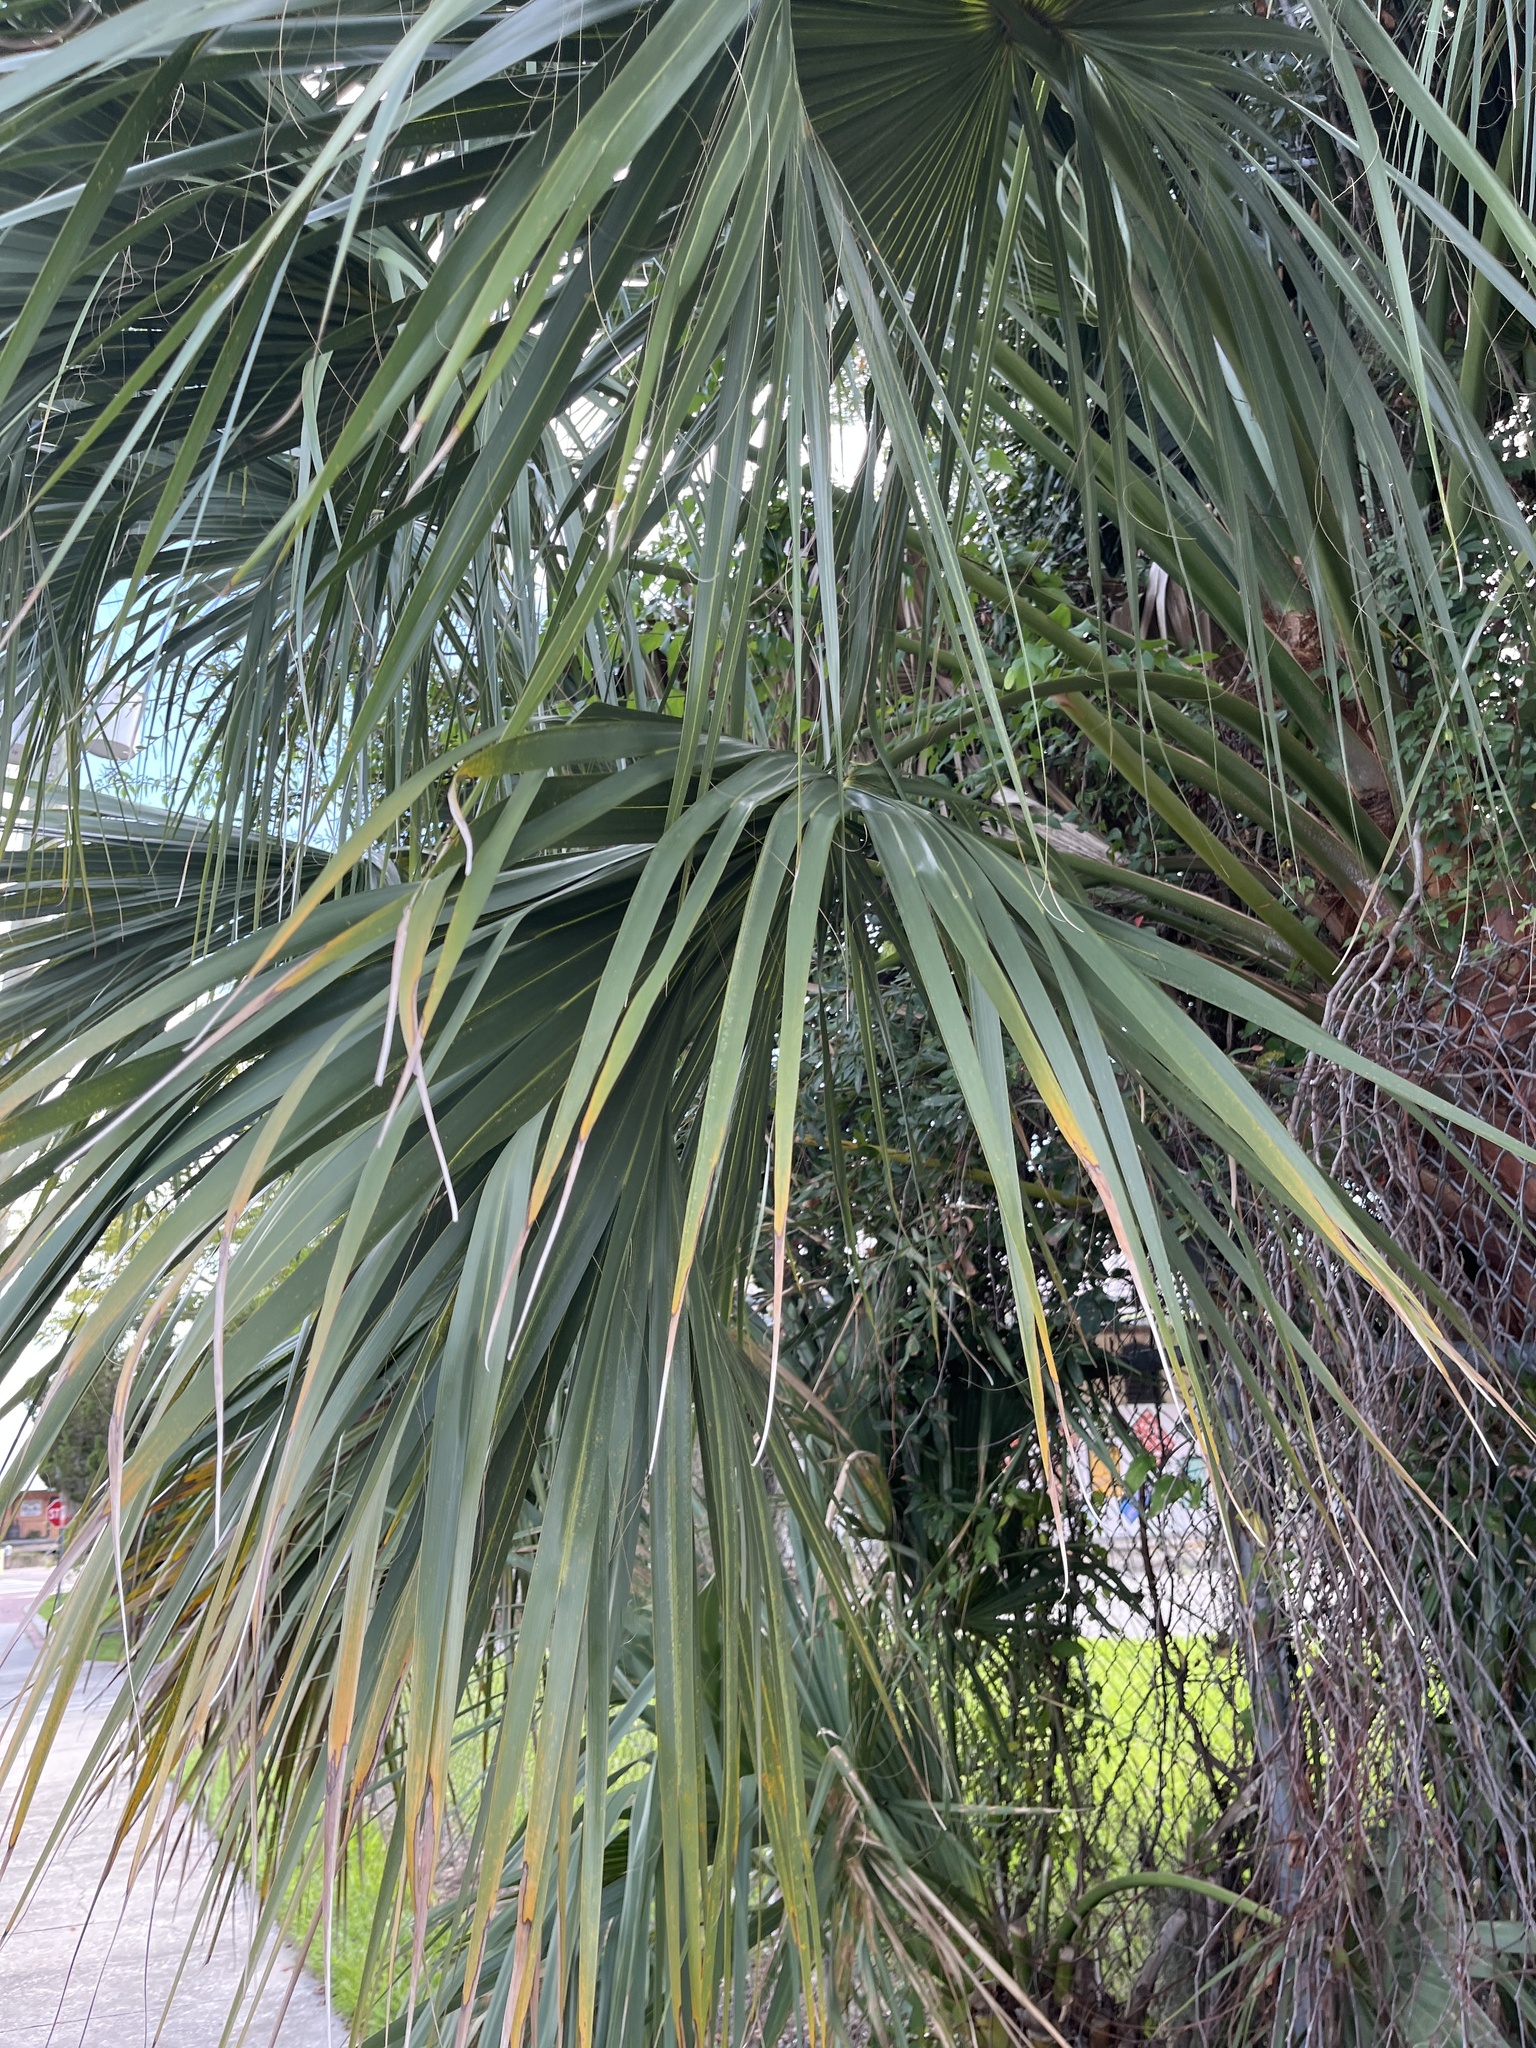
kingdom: Plantae
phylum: Tracheophyta
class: Liliopsida
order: Arecales
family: Arecaceae
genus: Sabal
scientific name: Sabal palmetto
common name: Blue palmetto
